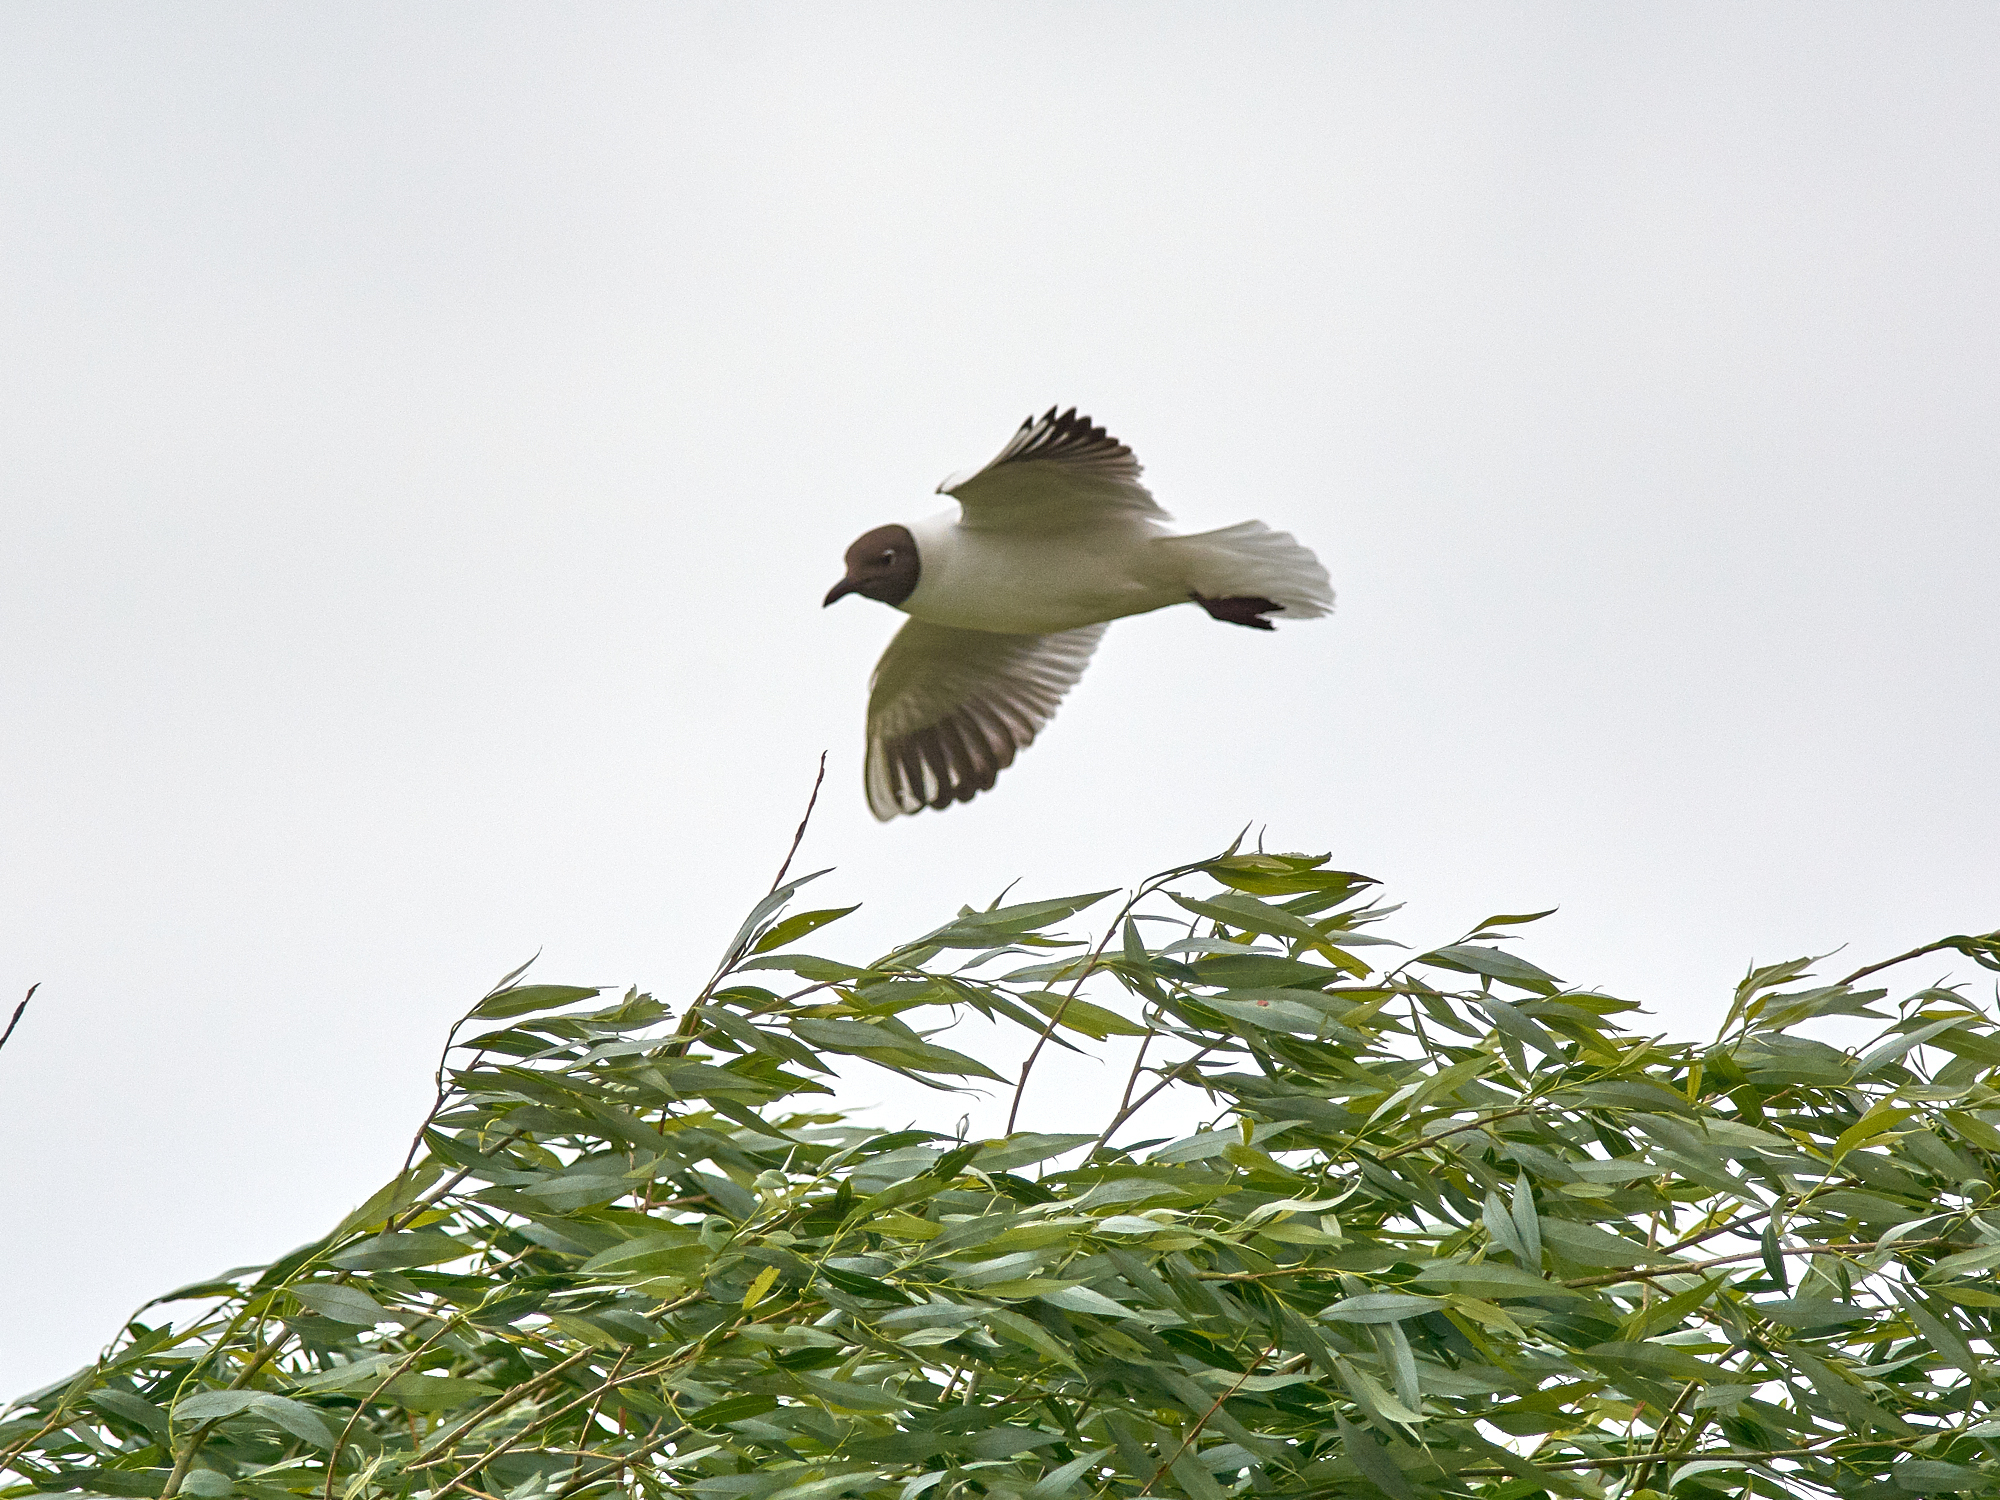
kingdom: Animalia
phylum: Chordata
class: Aves
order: Charadriiformes
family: Laridae
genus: Chroicocephalus
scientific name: Chroicocephalus ridibundus
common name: Black-headed gull
